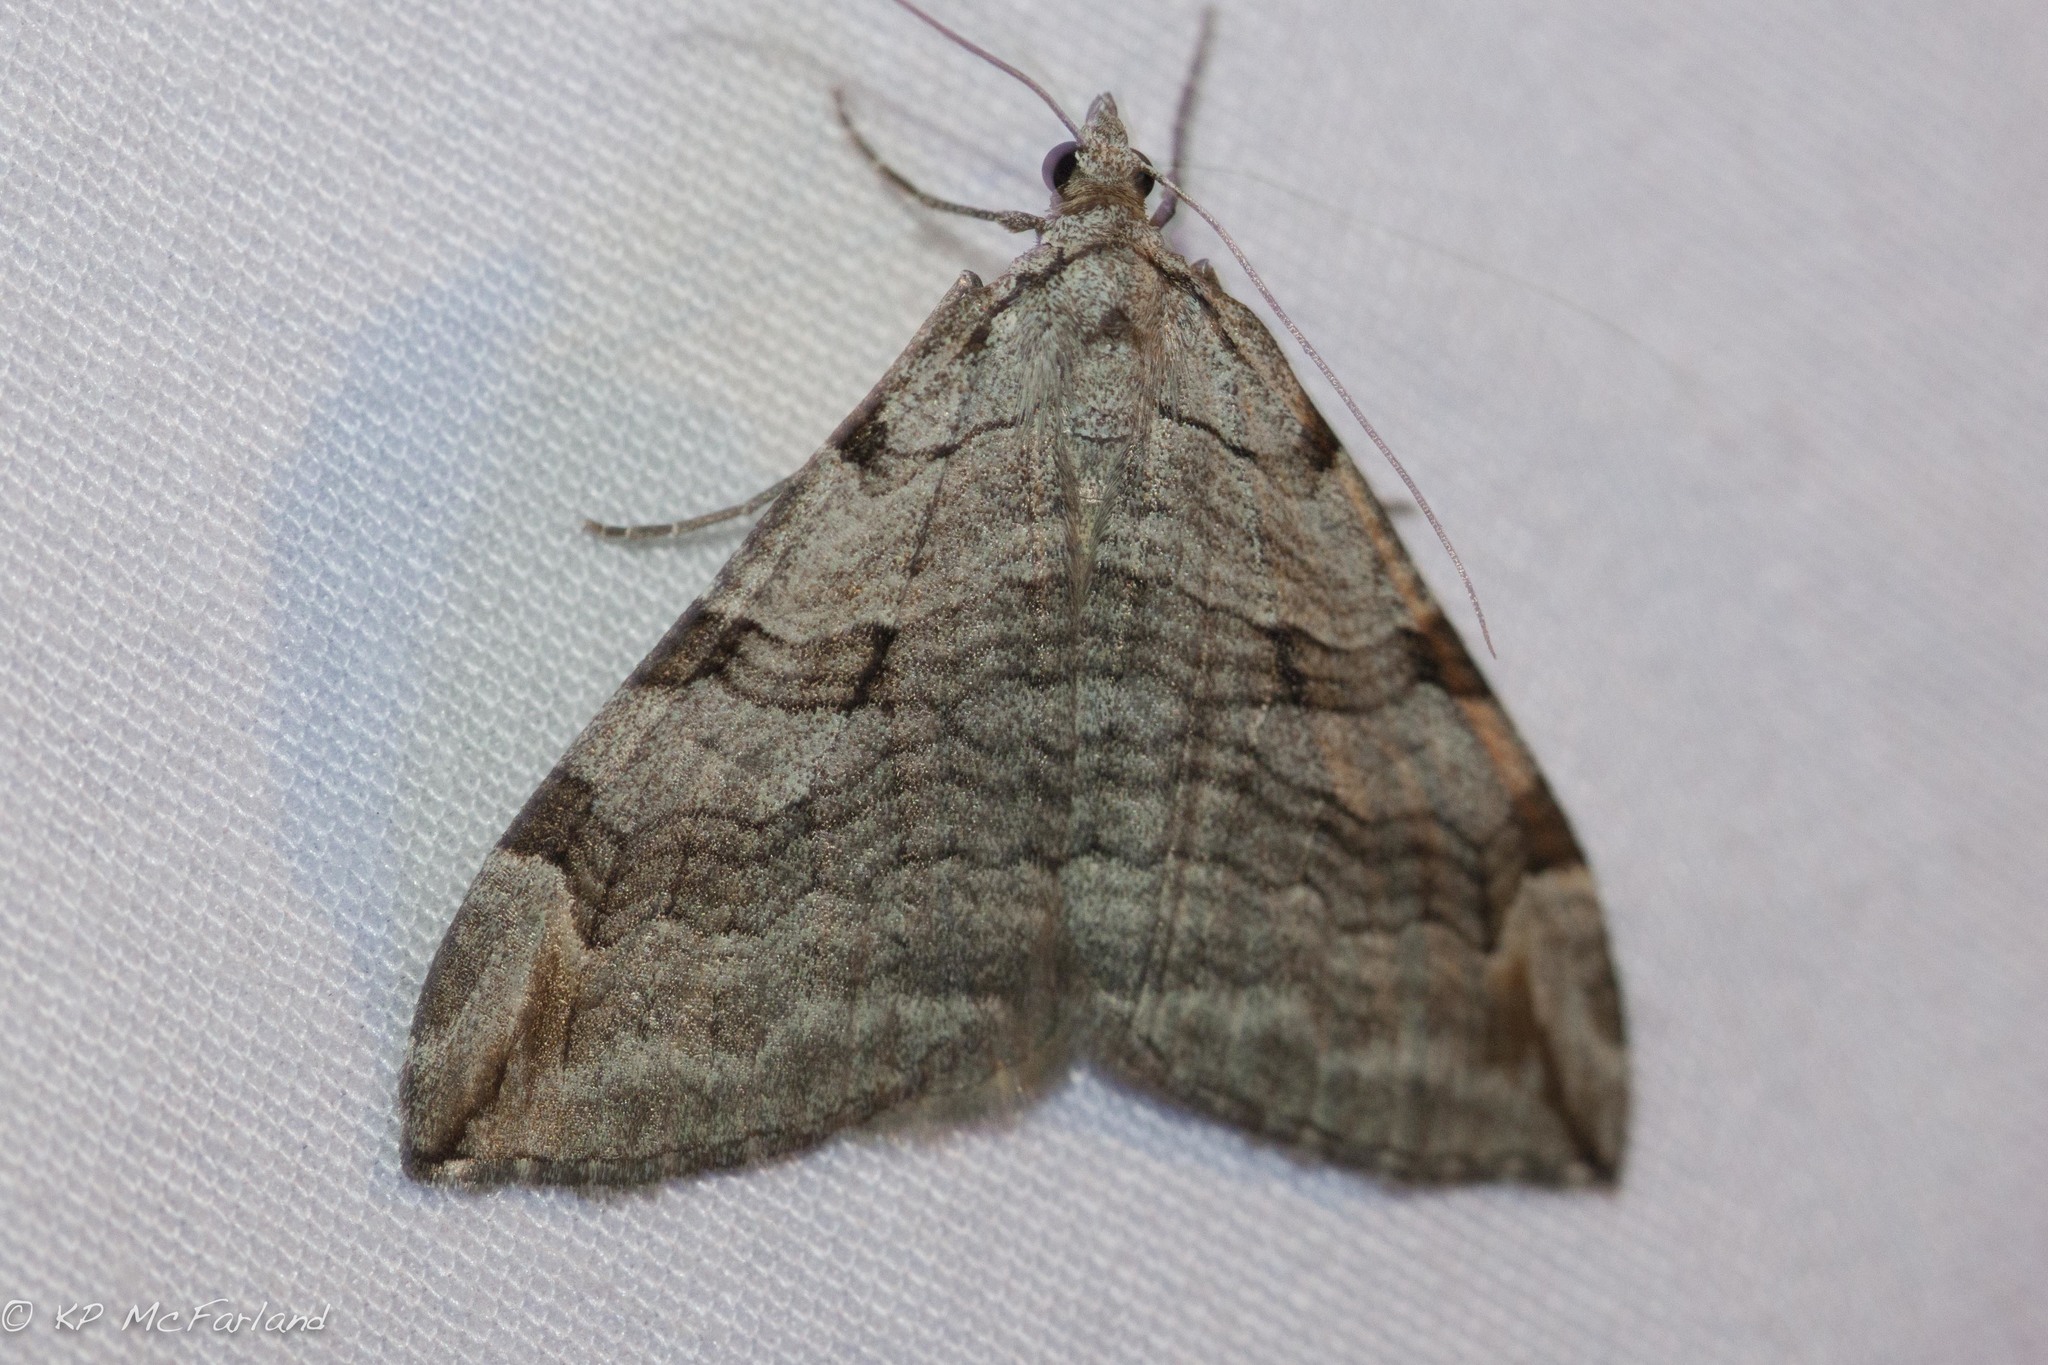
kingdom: Animalia
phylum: Arthropoda
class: Insecta
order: Lepidoptera
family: Geometridae
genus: Aplocera
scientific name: Aplocera plagiata
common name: Treble-bar
